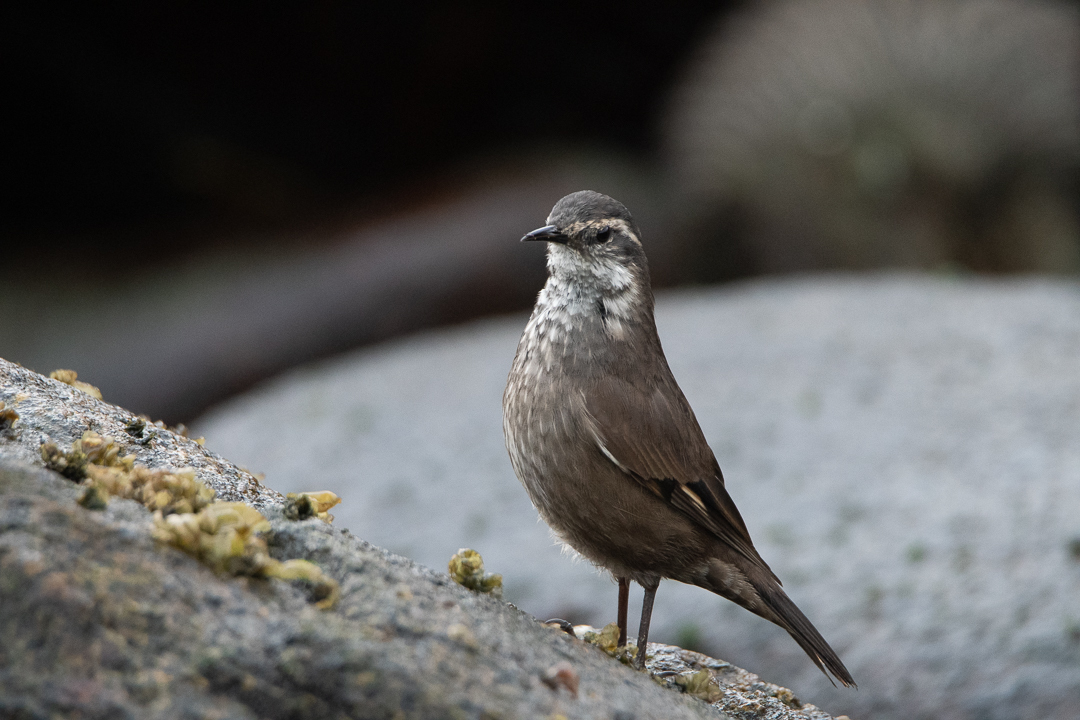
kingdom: Animalia
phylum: Chordata
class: Aves
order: Passeriformes
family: Furnariidae
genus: Cinclodes
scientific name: Cinclodes patagonicus
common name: Dark-bellied cinclodes
